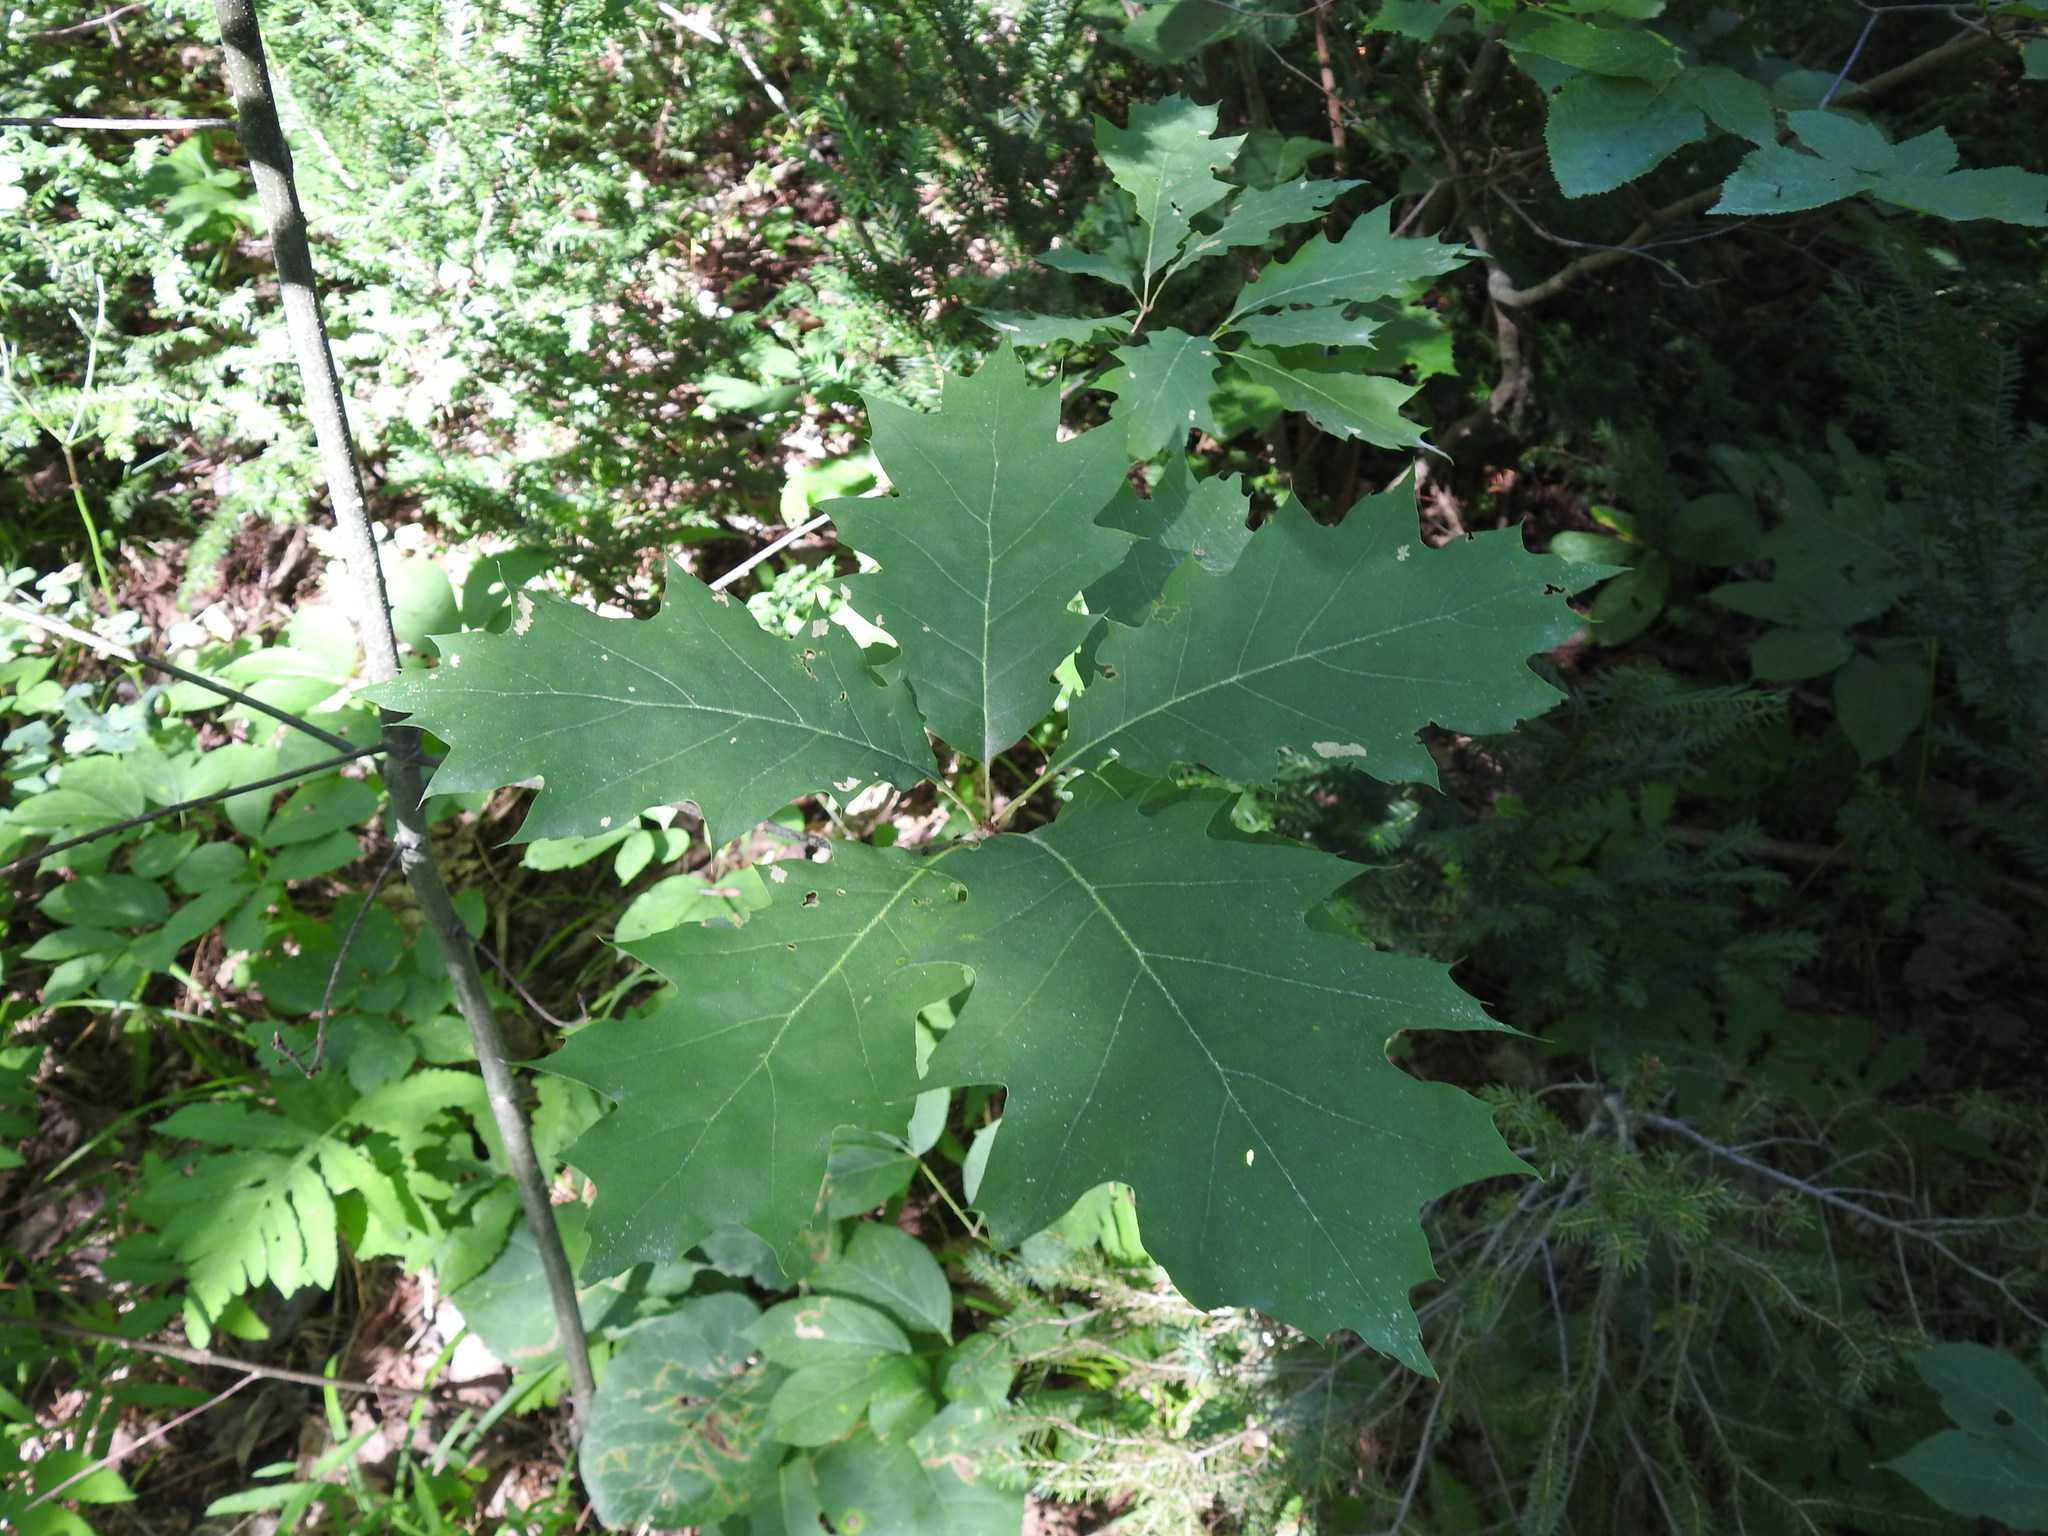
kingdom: Plantae
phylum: Tracheophyta
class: Magnoliopsida
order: Fagales
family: Fagaceae
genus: Quercus
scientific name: Quercus rubra
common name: Red oak
